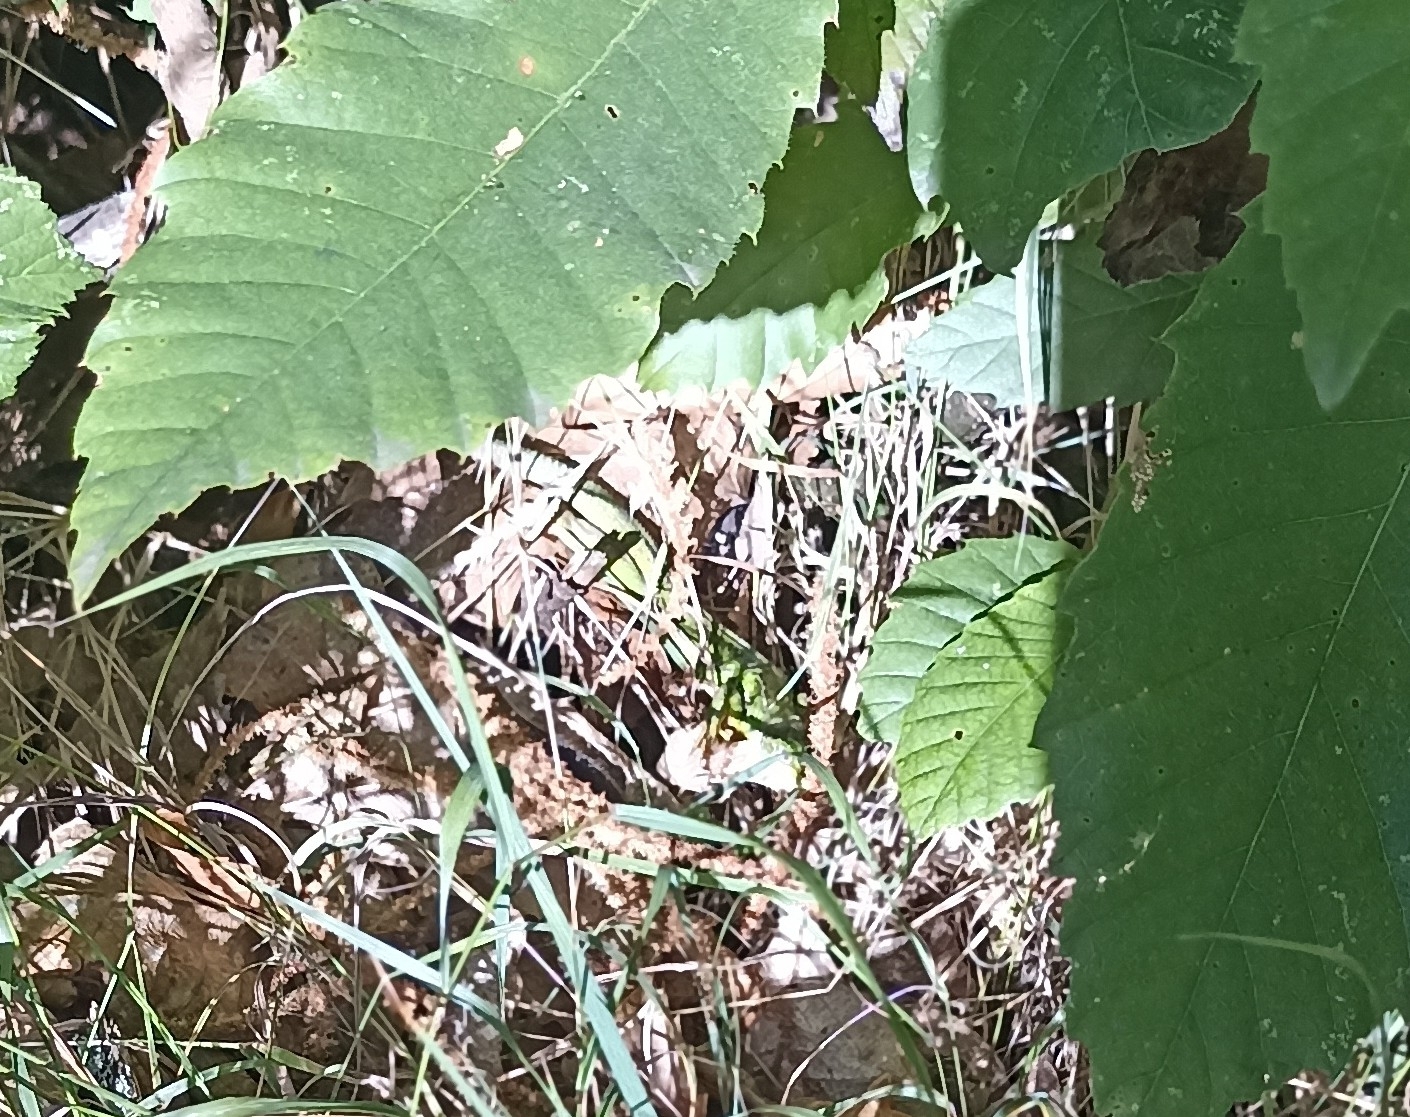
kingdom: Animalia
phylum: Chordata
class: Squamata
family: Lacertidae
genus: Lacerta
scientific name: Lacerta bilineata
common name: Western green lizard
